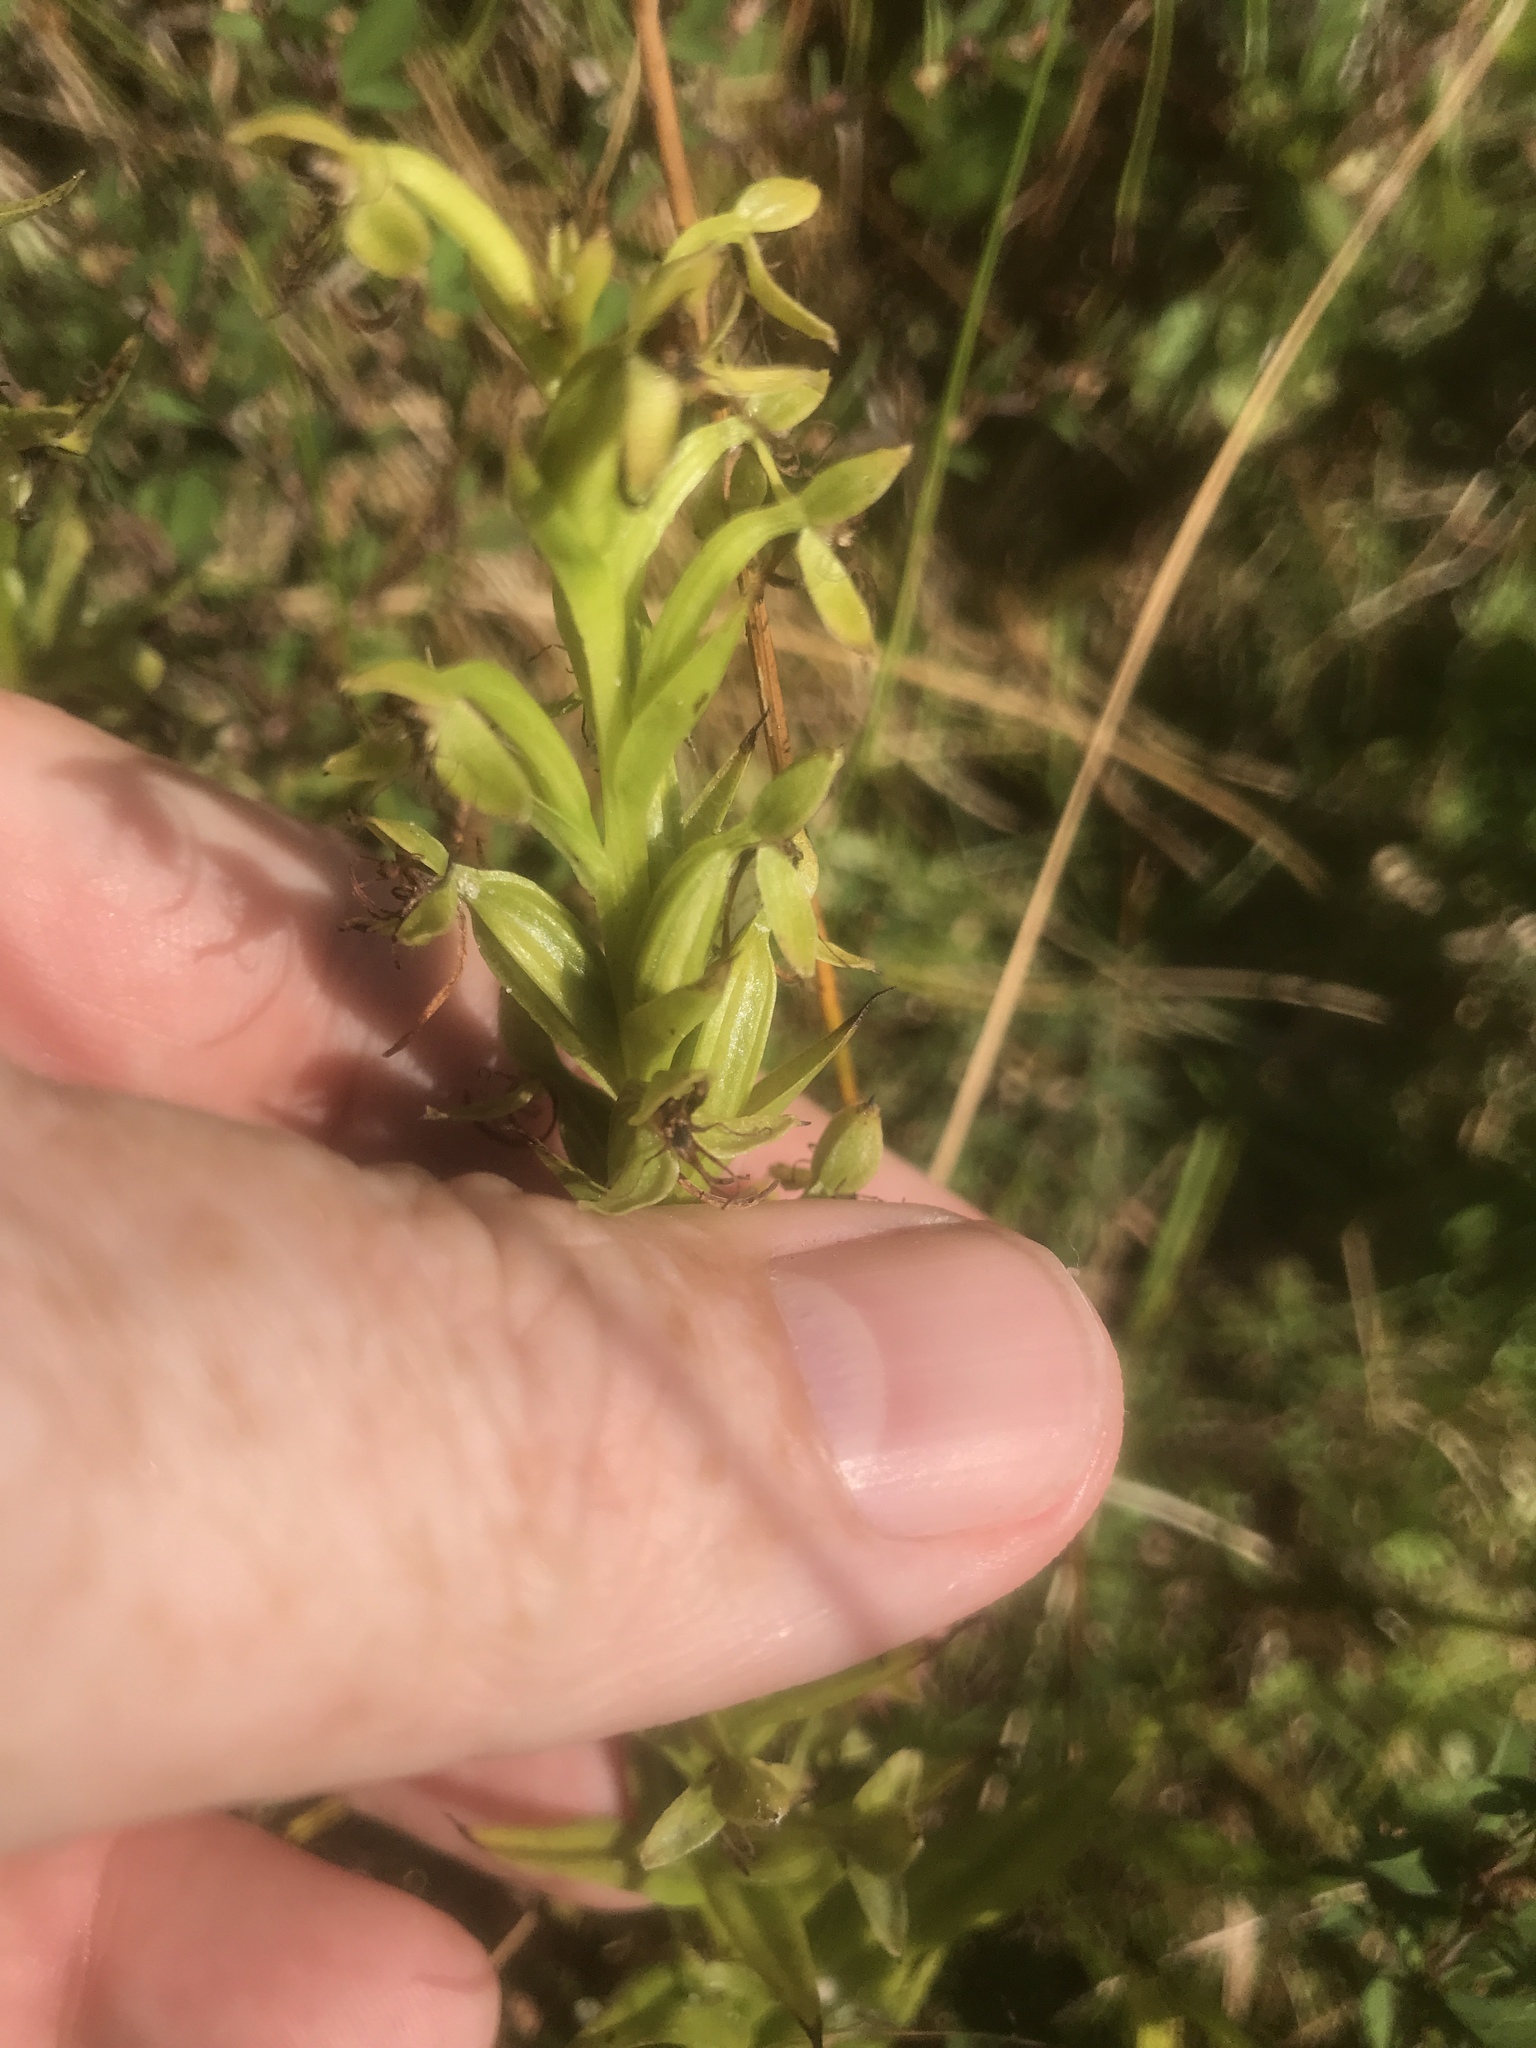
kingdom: Plantae
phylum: Tracheophyta
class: Liliopsida
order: Asparagales
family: Orchidaceae
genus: Habenaria
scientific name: Habenaria repens
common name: Water orchid
